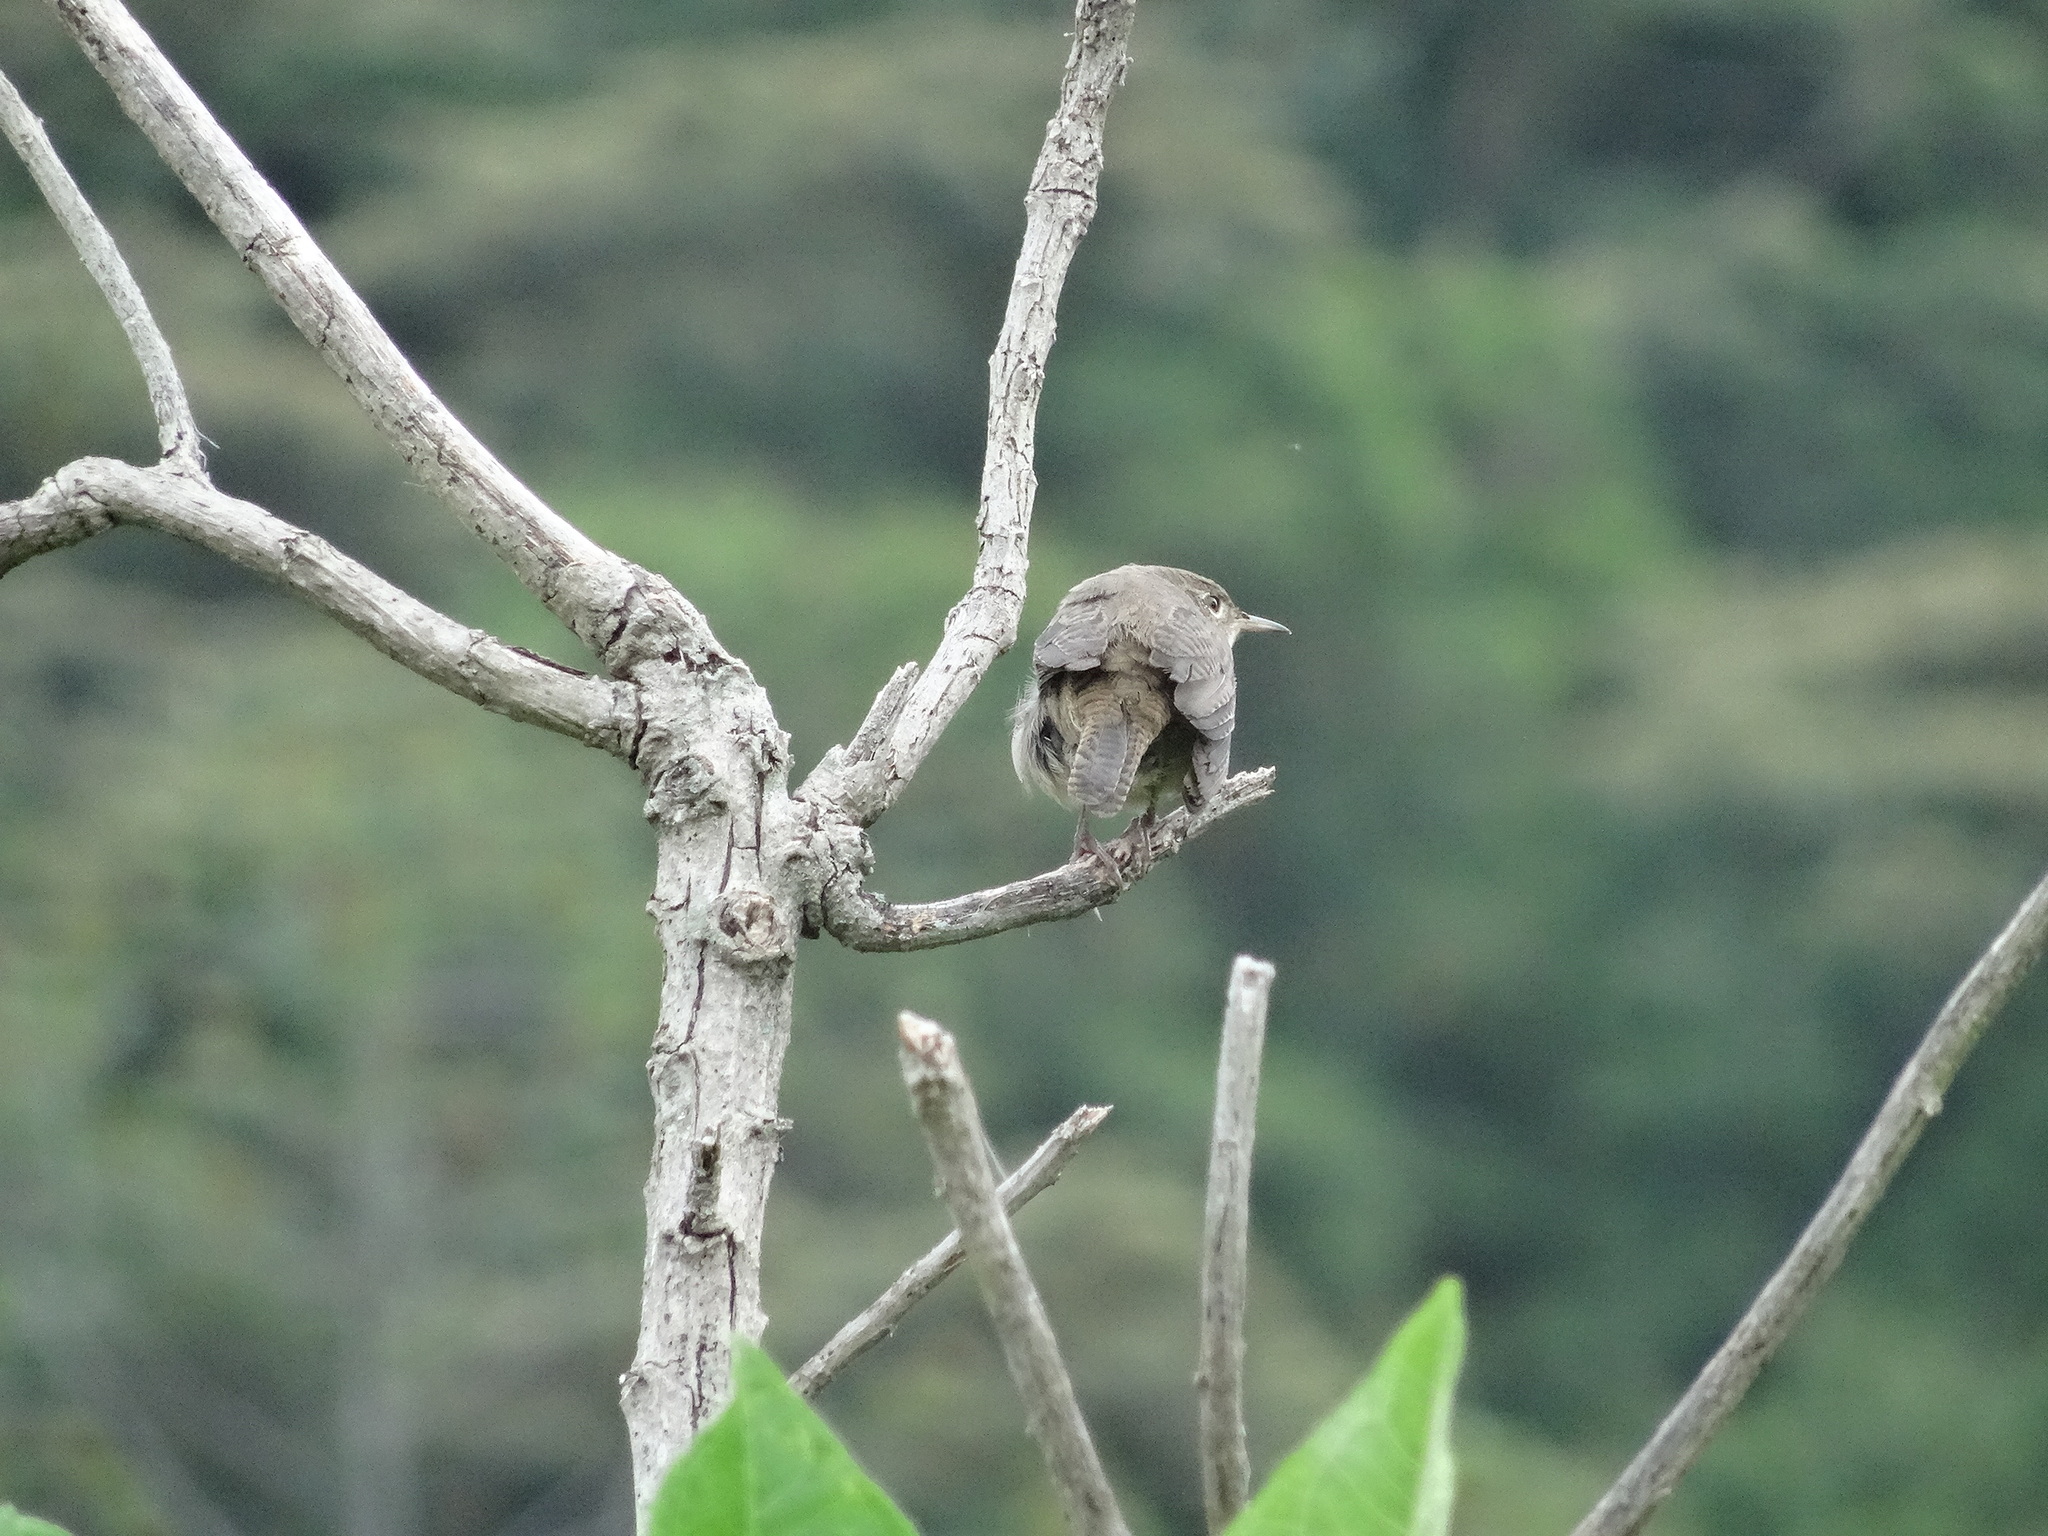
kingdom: Animalia
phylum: Chordata
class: Aves
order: Passeriformes
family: Troglodytidae
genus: Troglodytes
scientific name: Troglodytes aedon
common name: House wren
